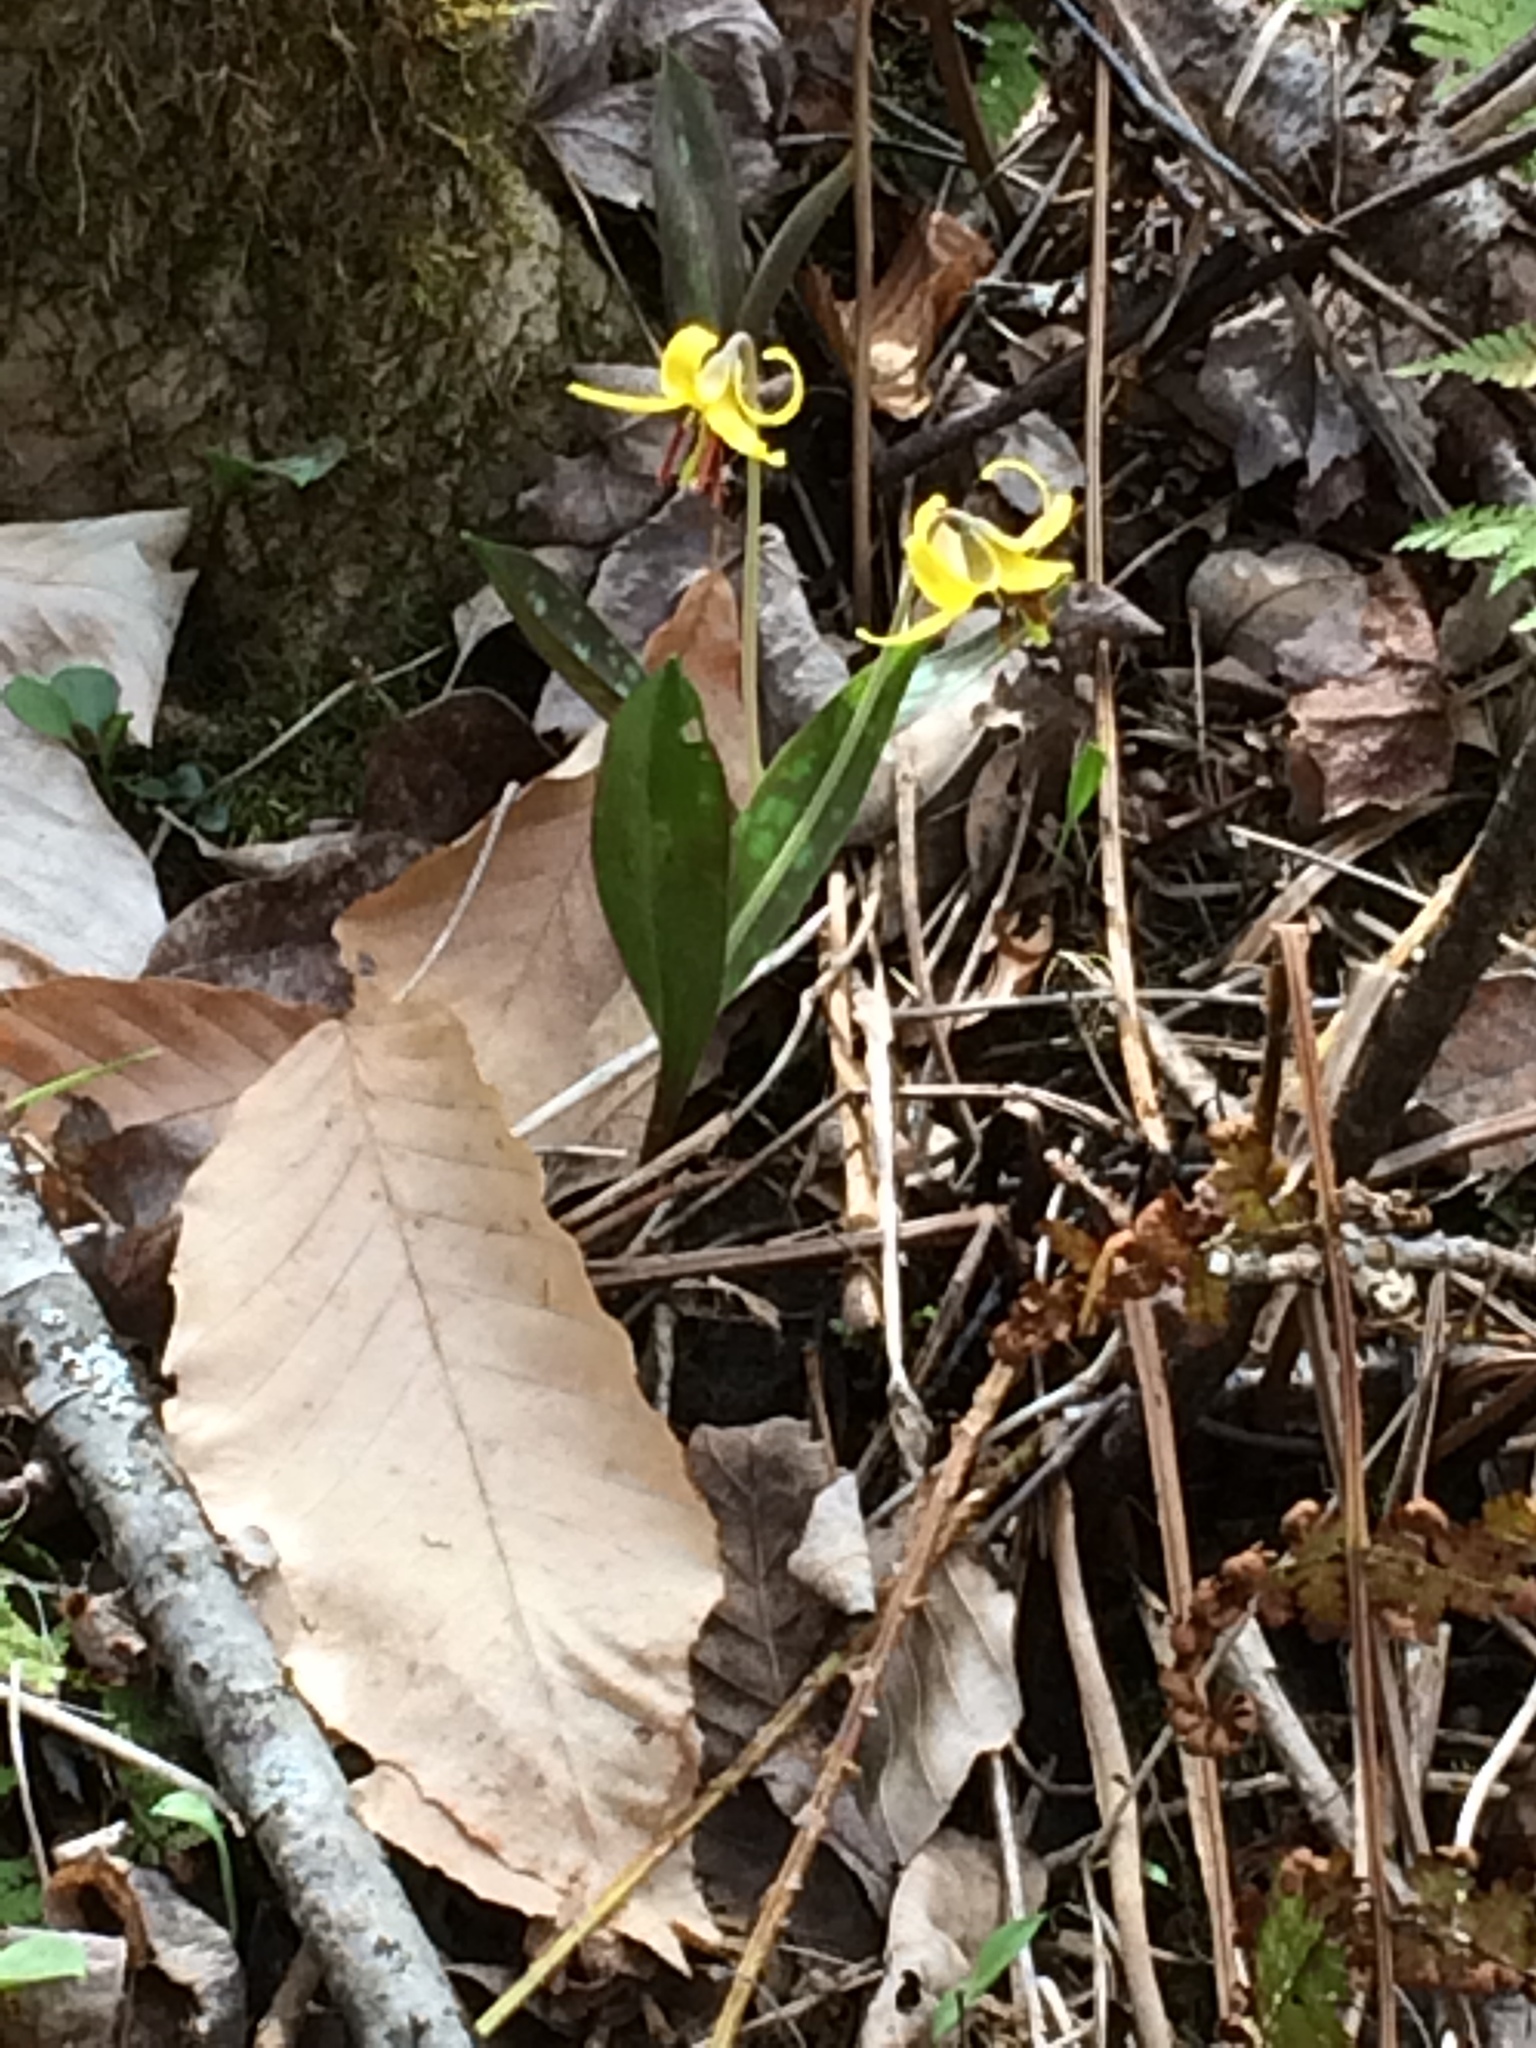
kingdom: Plantae
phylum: Tracheophyta
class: Liliopsida
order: Liliales
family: Liliaceae
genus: Erythronium
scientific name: Erythronium americanum
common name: Yellow adder's-tongue
